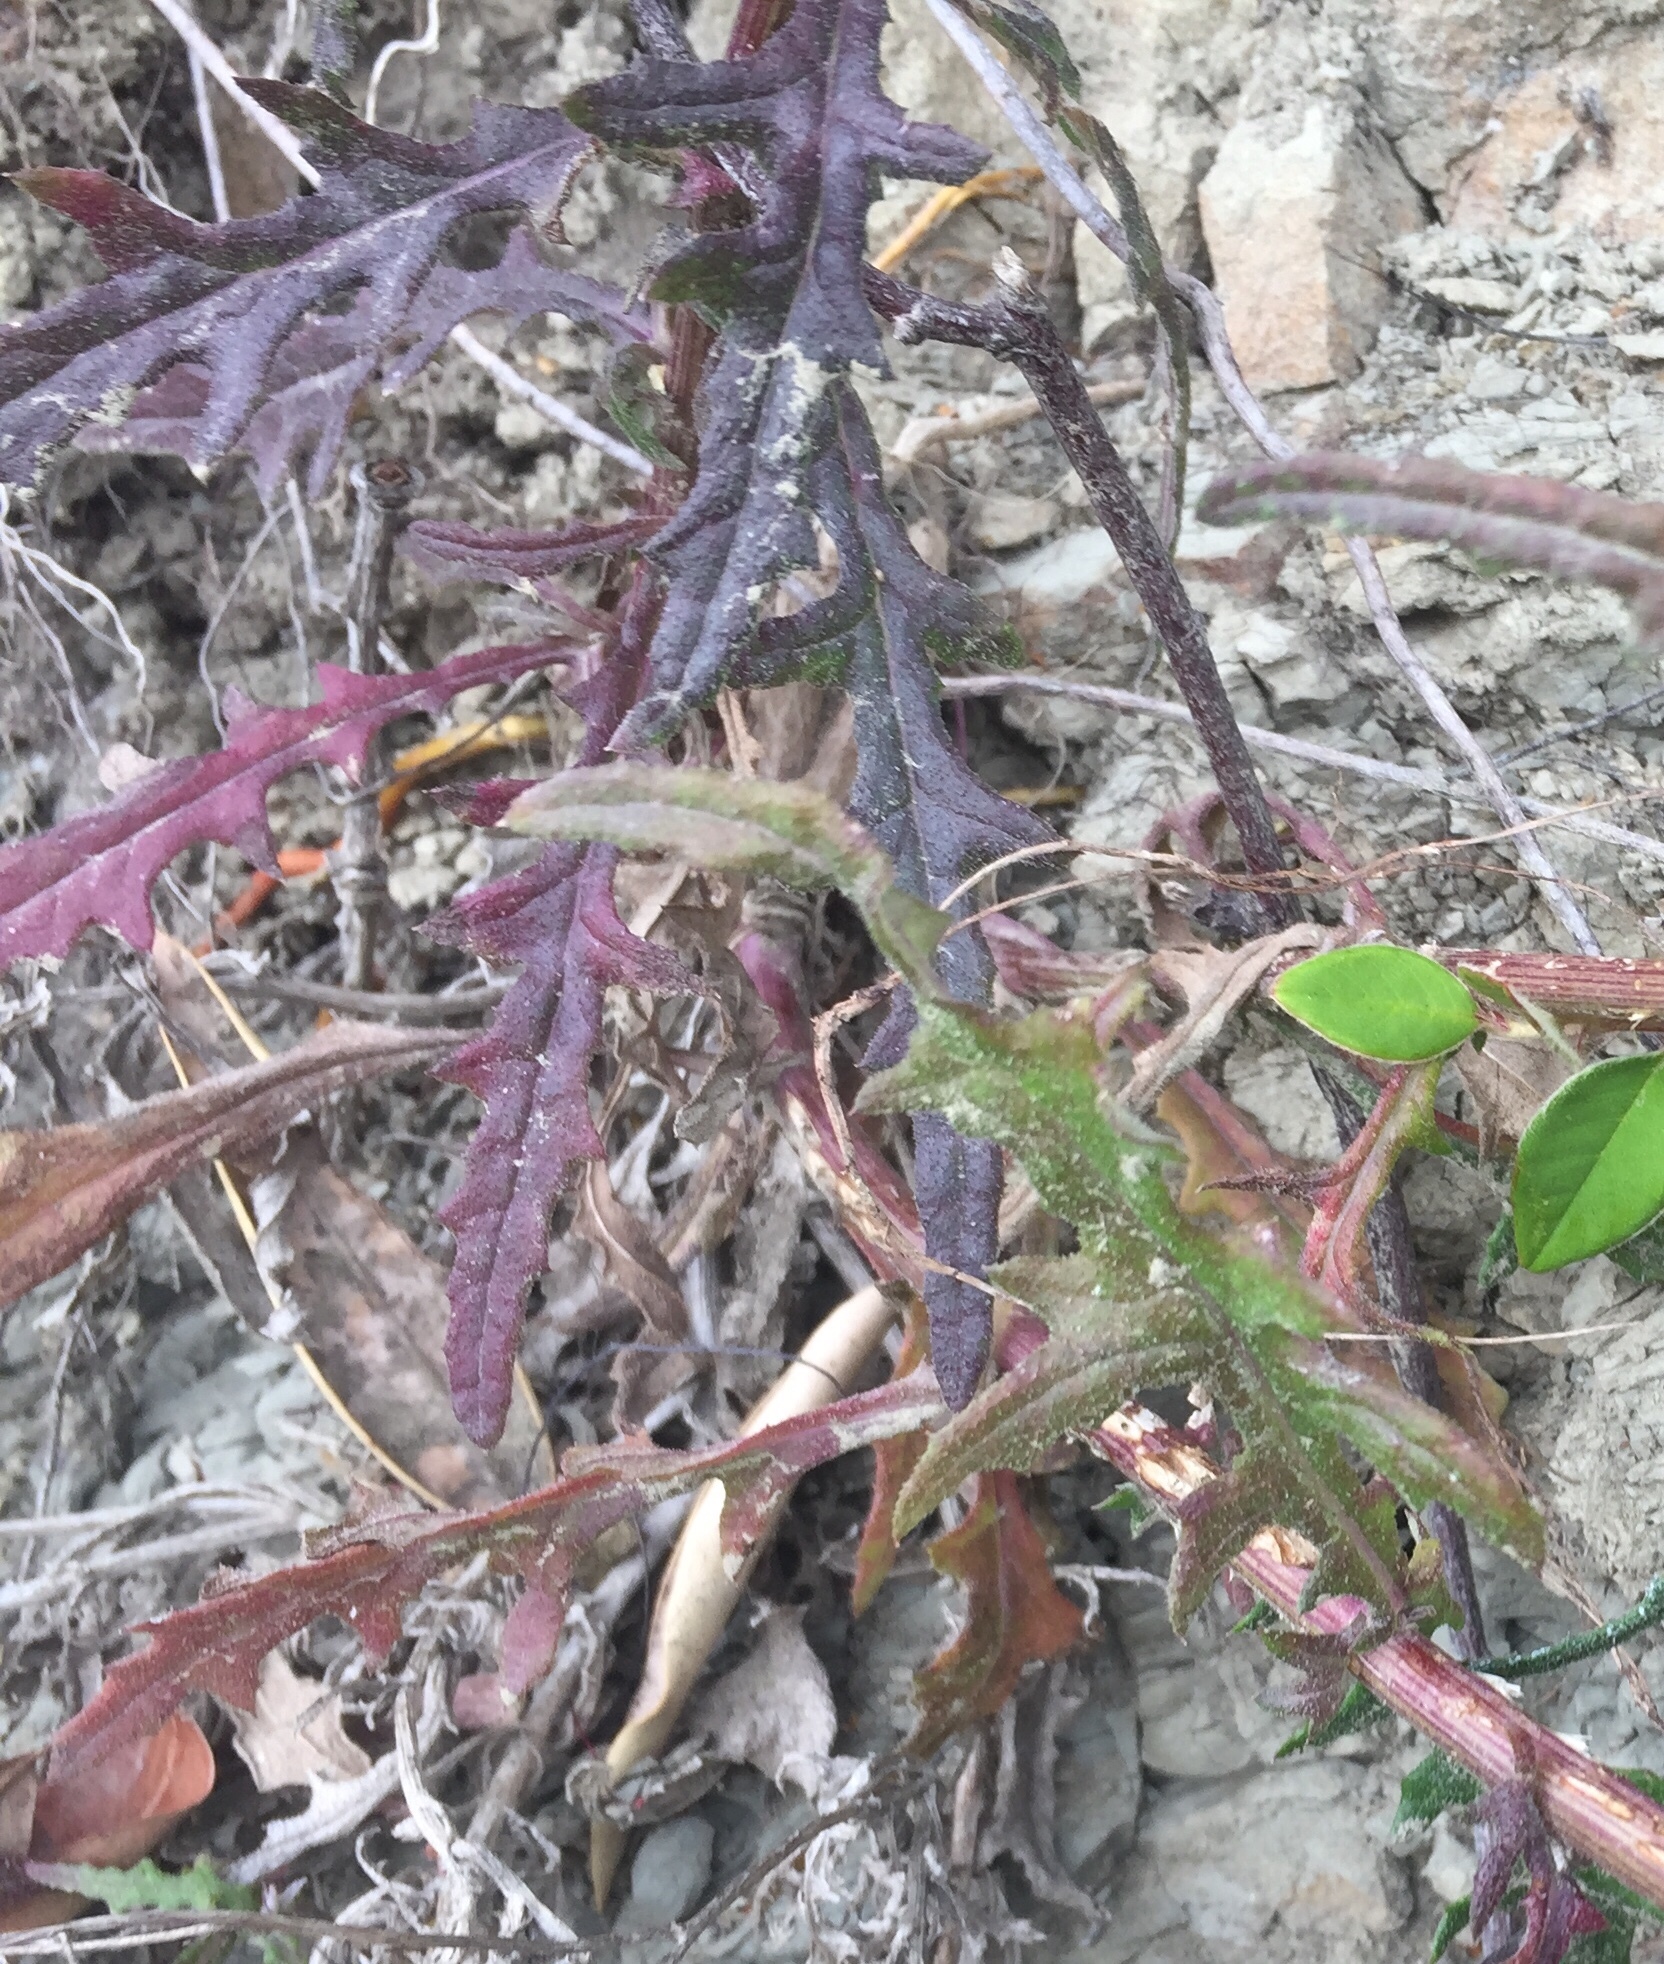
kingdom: Plantae
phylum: Tracheophyta
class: Magnoliopsida
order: Asterales
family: Asteraceae
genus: Senecio
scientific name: Senecio hispidulus
